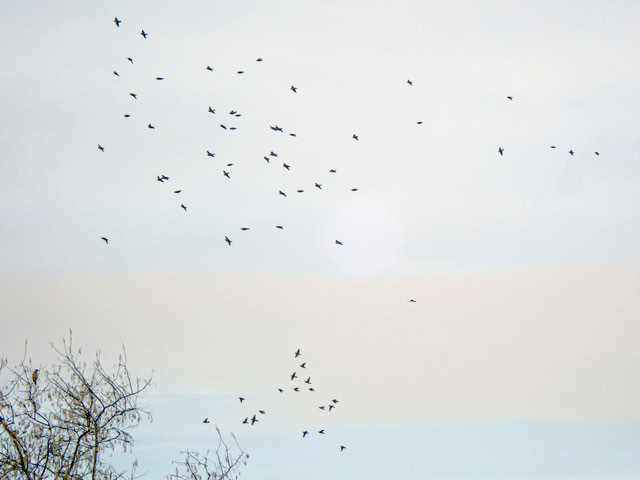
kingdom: Animalia
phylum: Chordata
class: Aves
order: Passeriformes
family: Bombycillidae
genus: Bombycilla
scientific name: Bombycilla garrulus
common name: Bohemian waxwing
